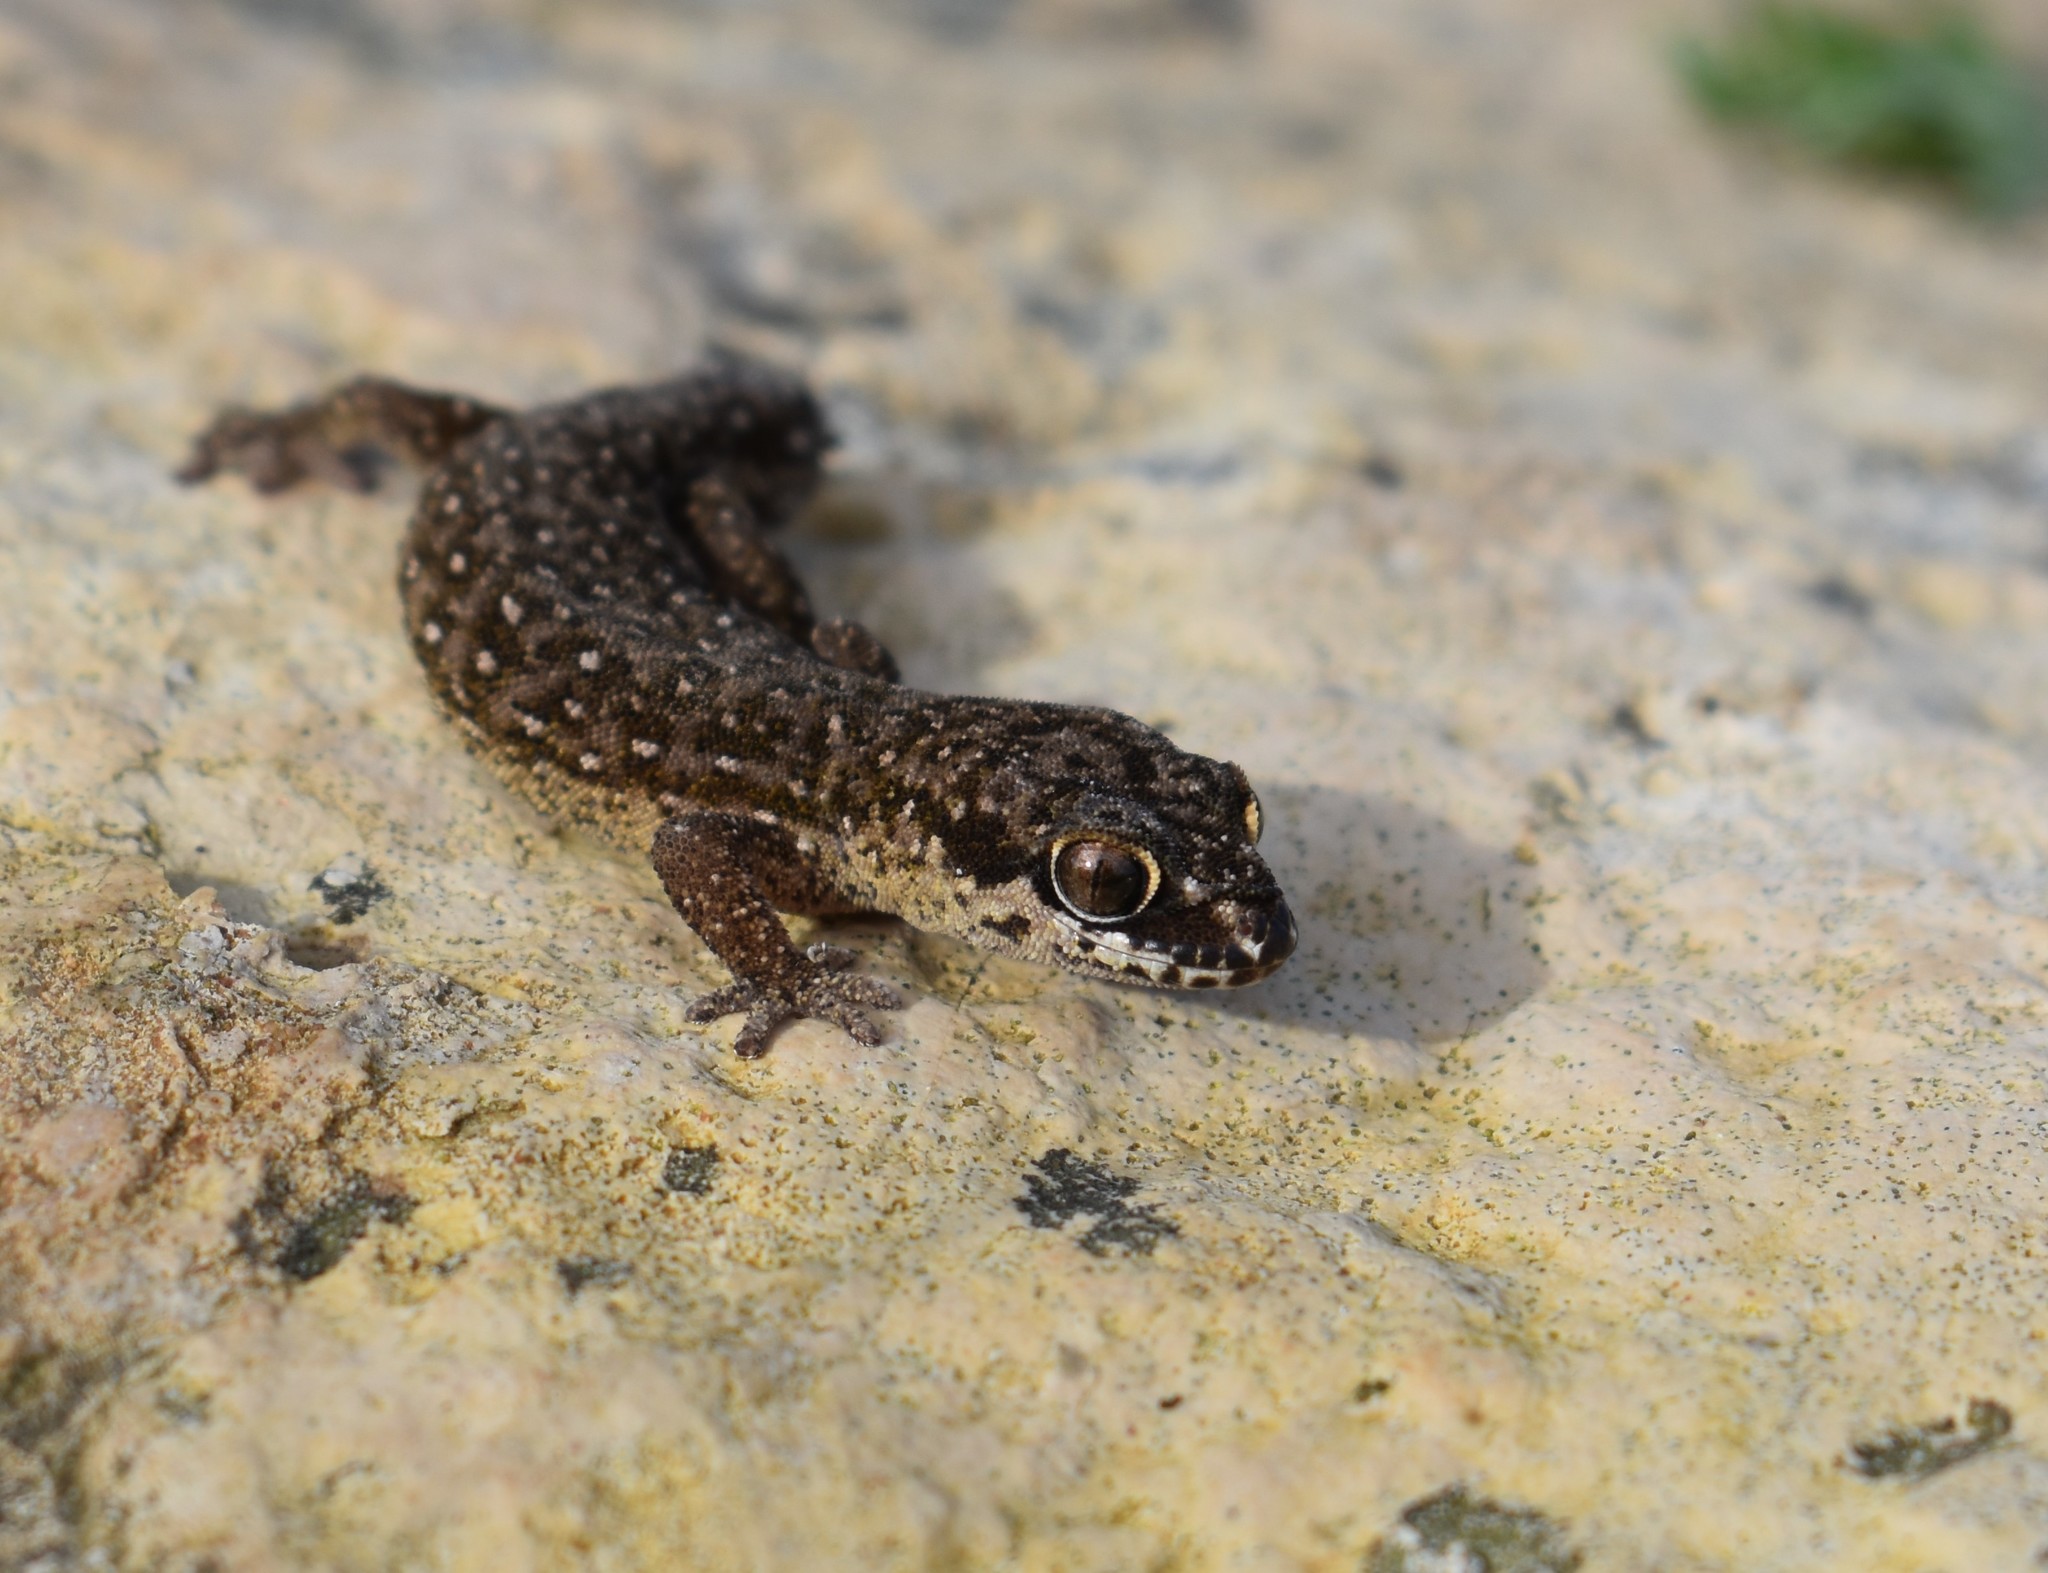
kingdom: Animalia
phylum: Chordata
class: Squamata
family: Gekkonidae
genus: Pachydactylus
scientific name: Pachydactylus geitje
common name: Ocellated thick-toed gecko
